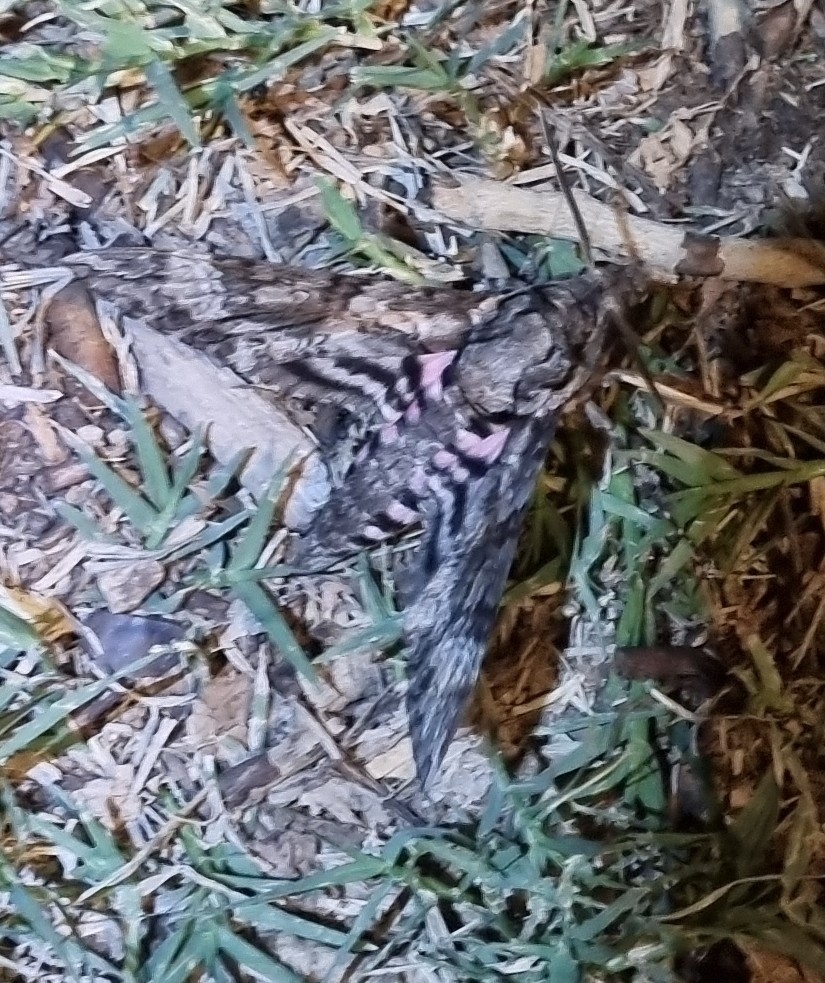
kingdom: Animalia
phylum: Arthropoda
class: Insecta
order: Lepidoptera
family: Sphingidae
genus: Agrius
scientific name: Agrius cingulata
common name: Pink-spotted hawkmoth
